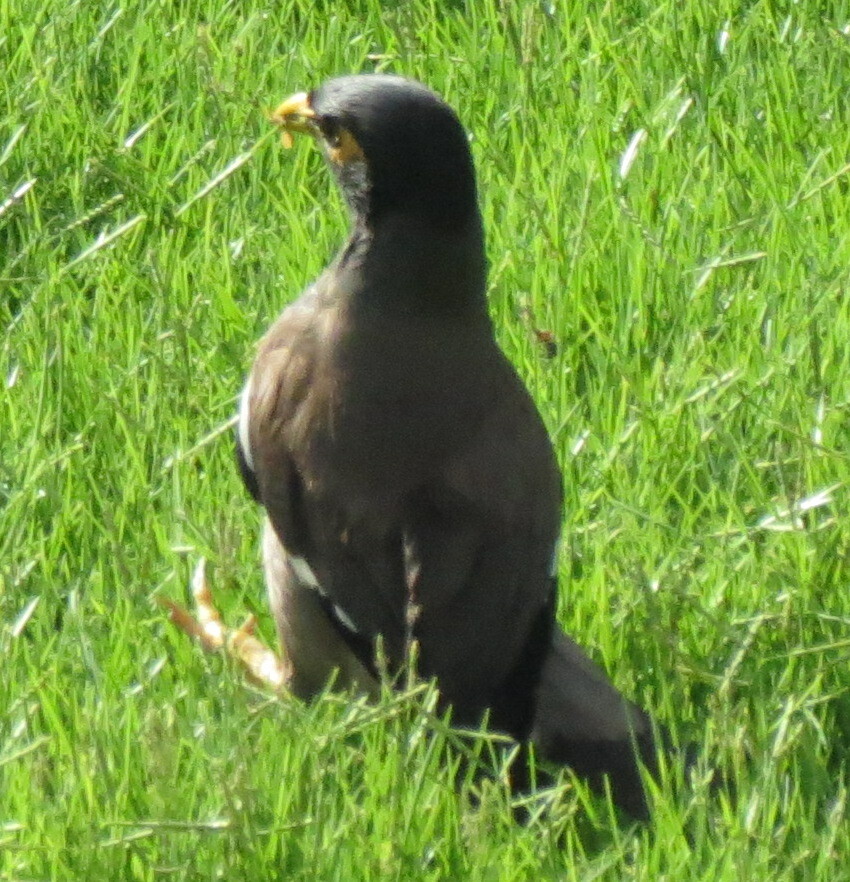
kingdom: Animalia
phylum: Chordata
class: Aves
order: Passeriformes
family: Sturnidae
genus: Acridotheres
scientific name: Acridotheres tristis
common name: Common myna
